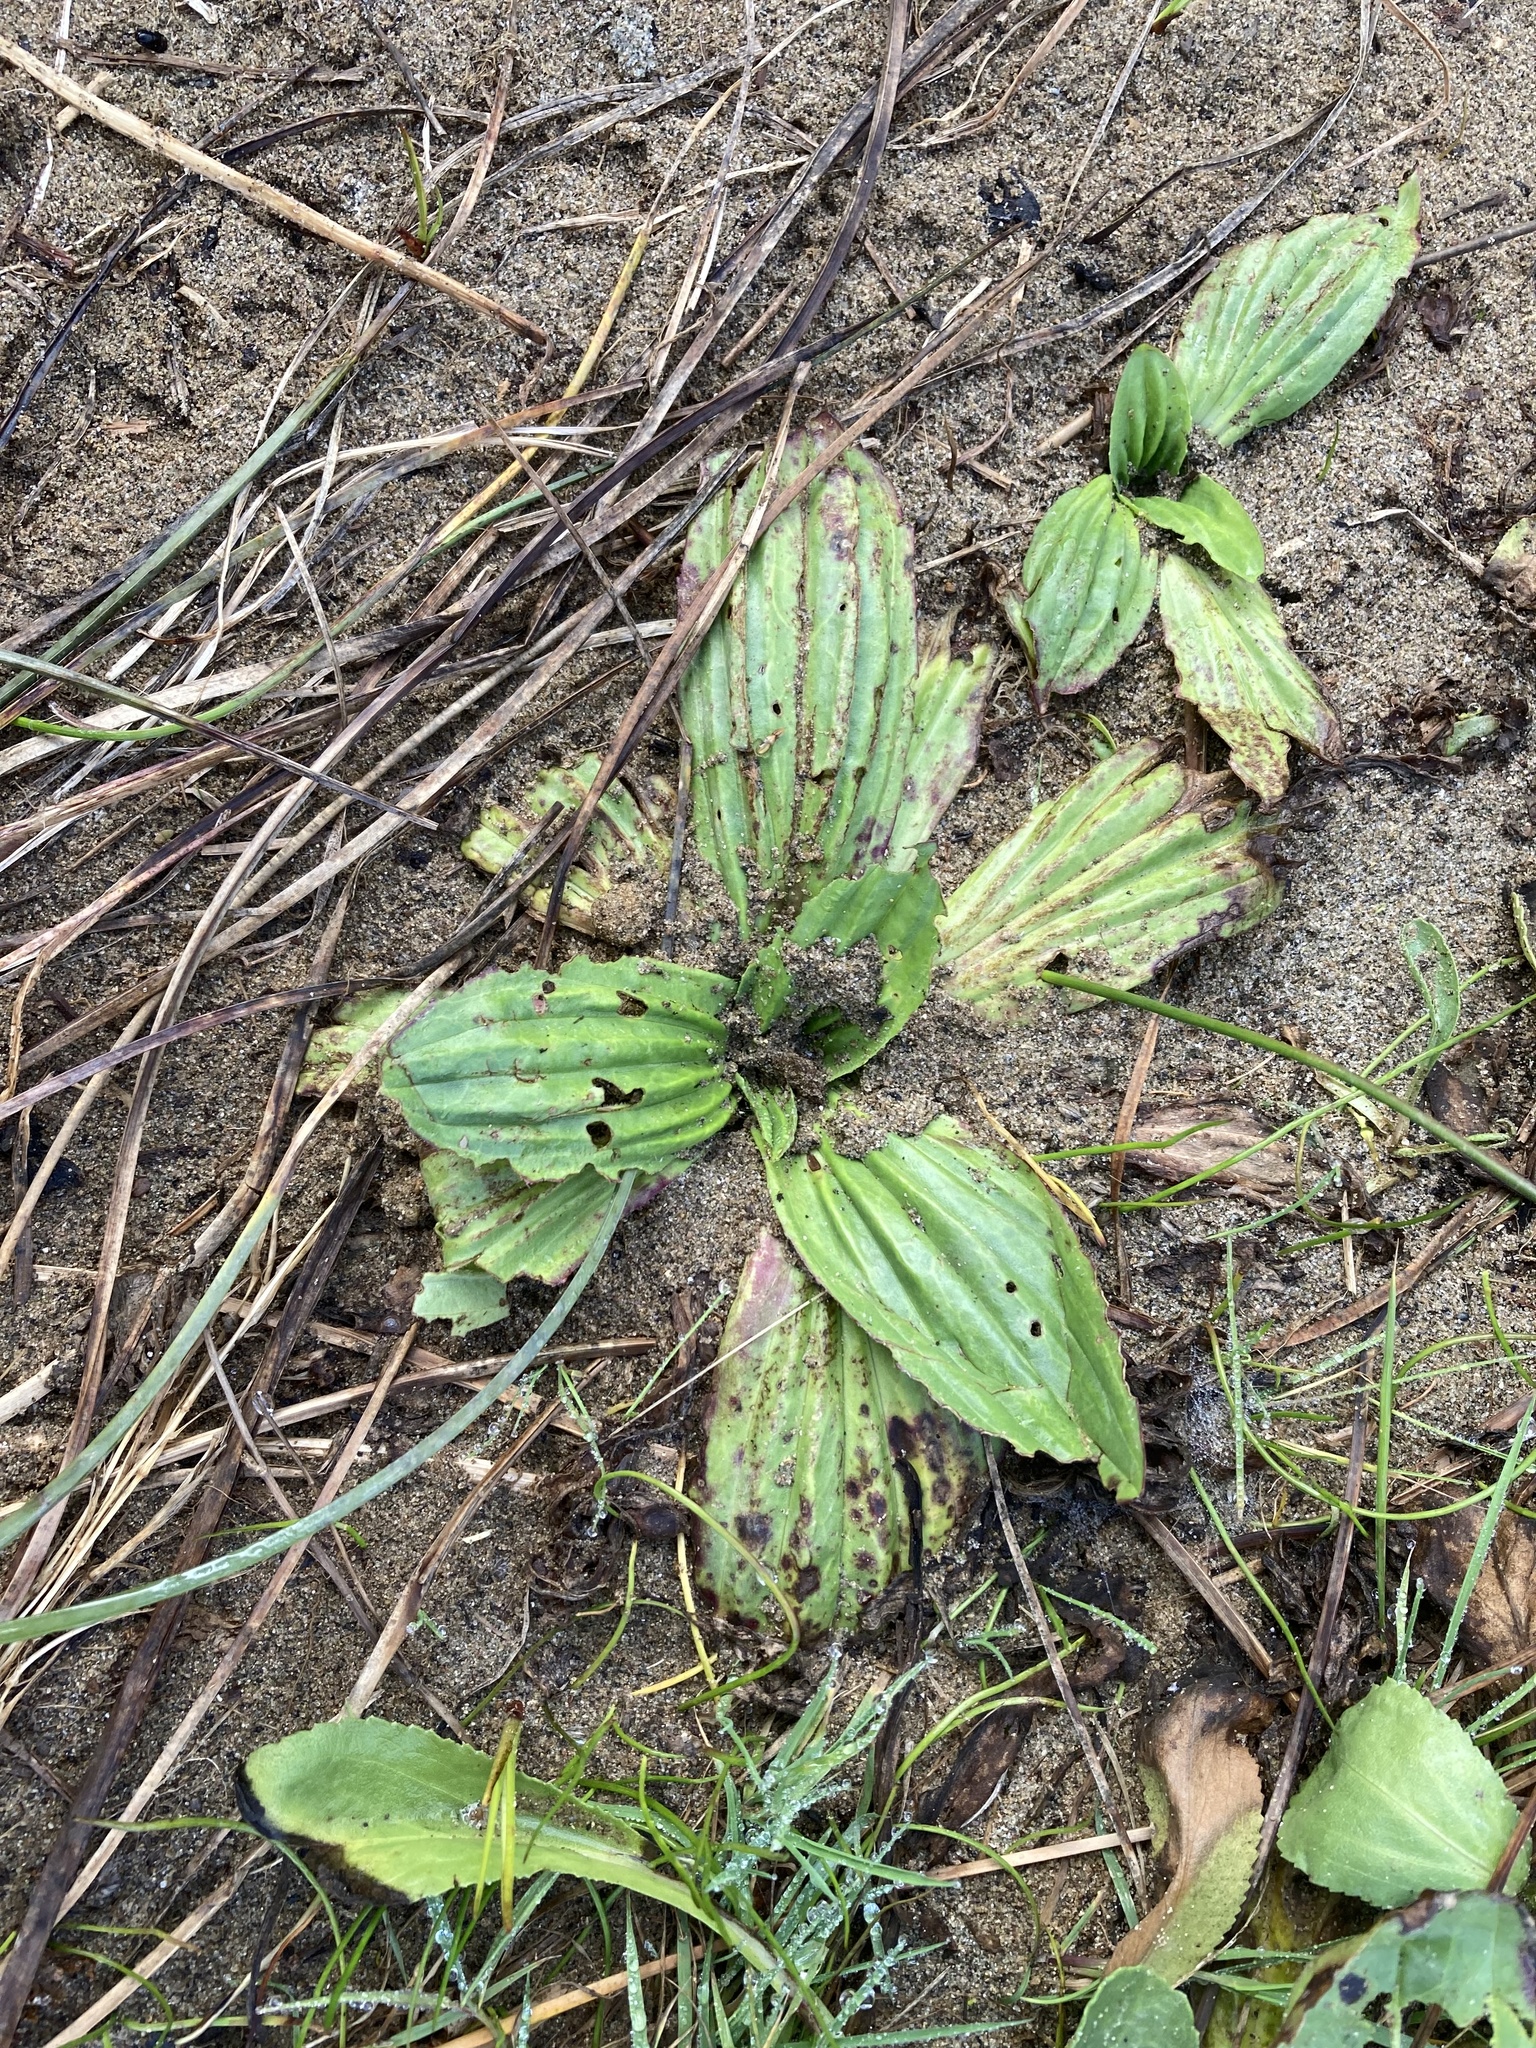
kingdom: Plantae
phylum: Tracheophyta
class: Magnoliopsida
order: Lamiales
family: Plantaginaceae
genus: Plantago
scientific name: Plantago subnuda
